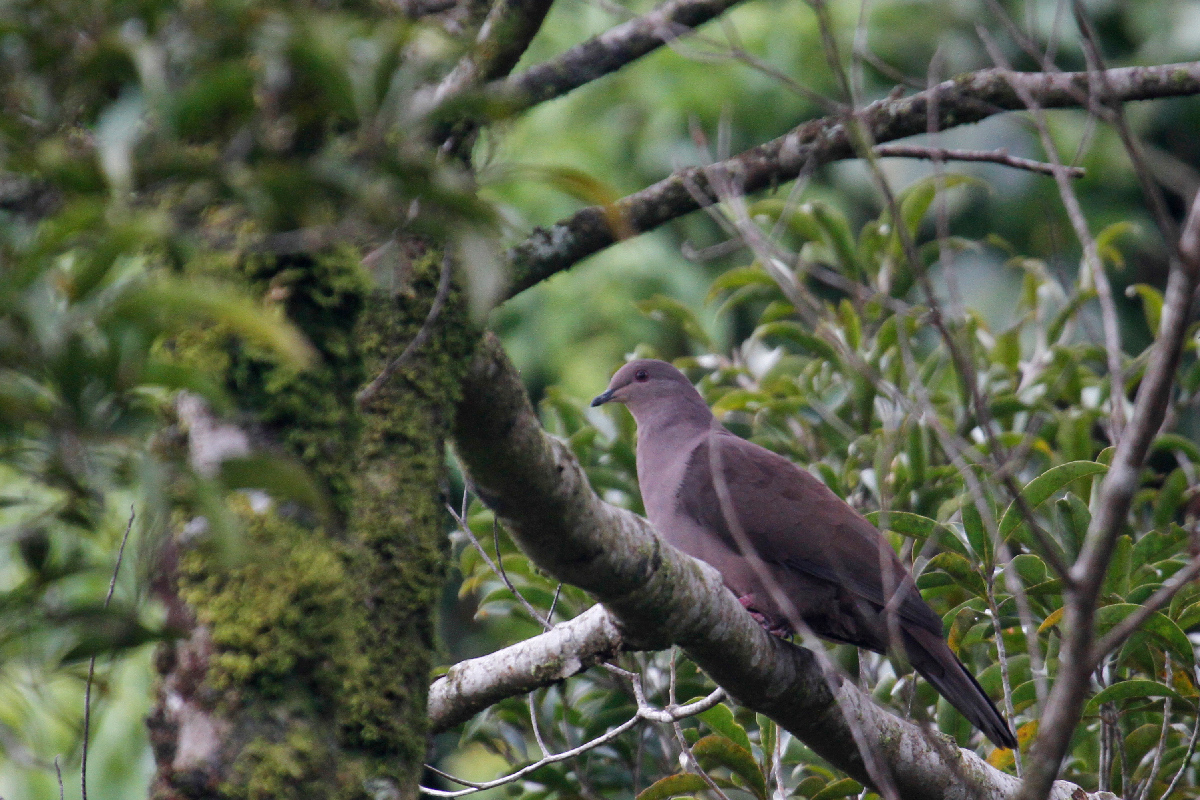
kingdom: Animalia
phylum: Chordata
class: Aves
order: Columbiformes
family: Columbidae
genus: Patagioenas
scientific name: Patagioenas subvinacea
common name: Ruddy pigeon
